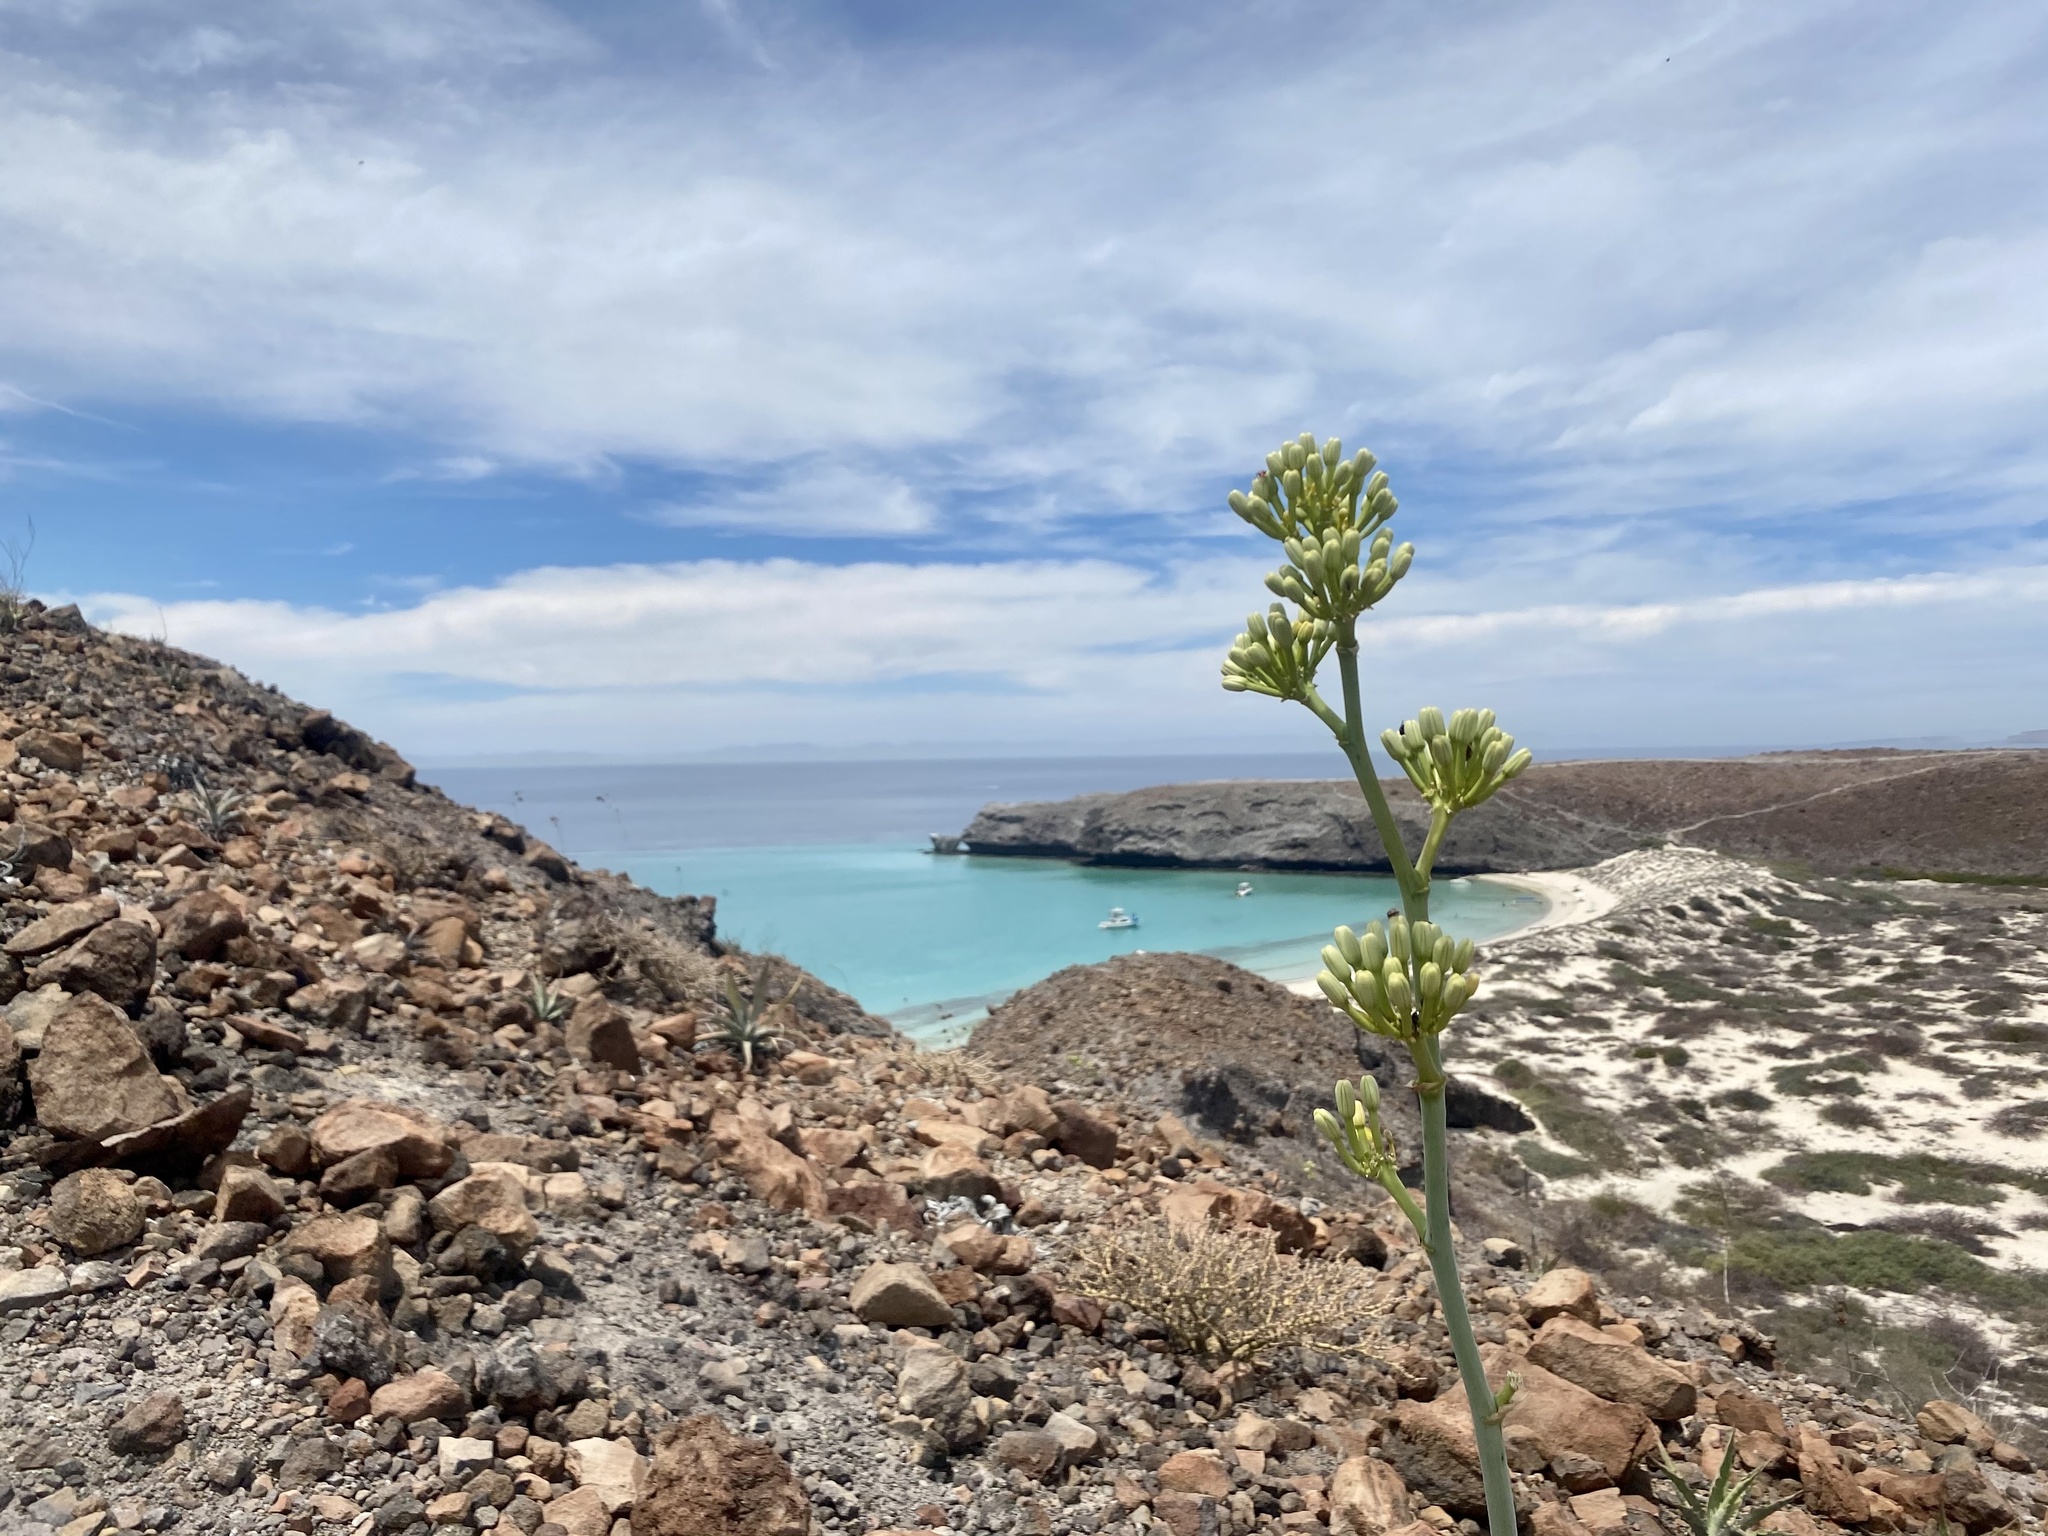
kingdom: Plantae
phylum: Tracheophyta
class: Liliopsida
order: Asparagales
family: Asparagaceae
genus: Agave
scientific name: Agave sobria
